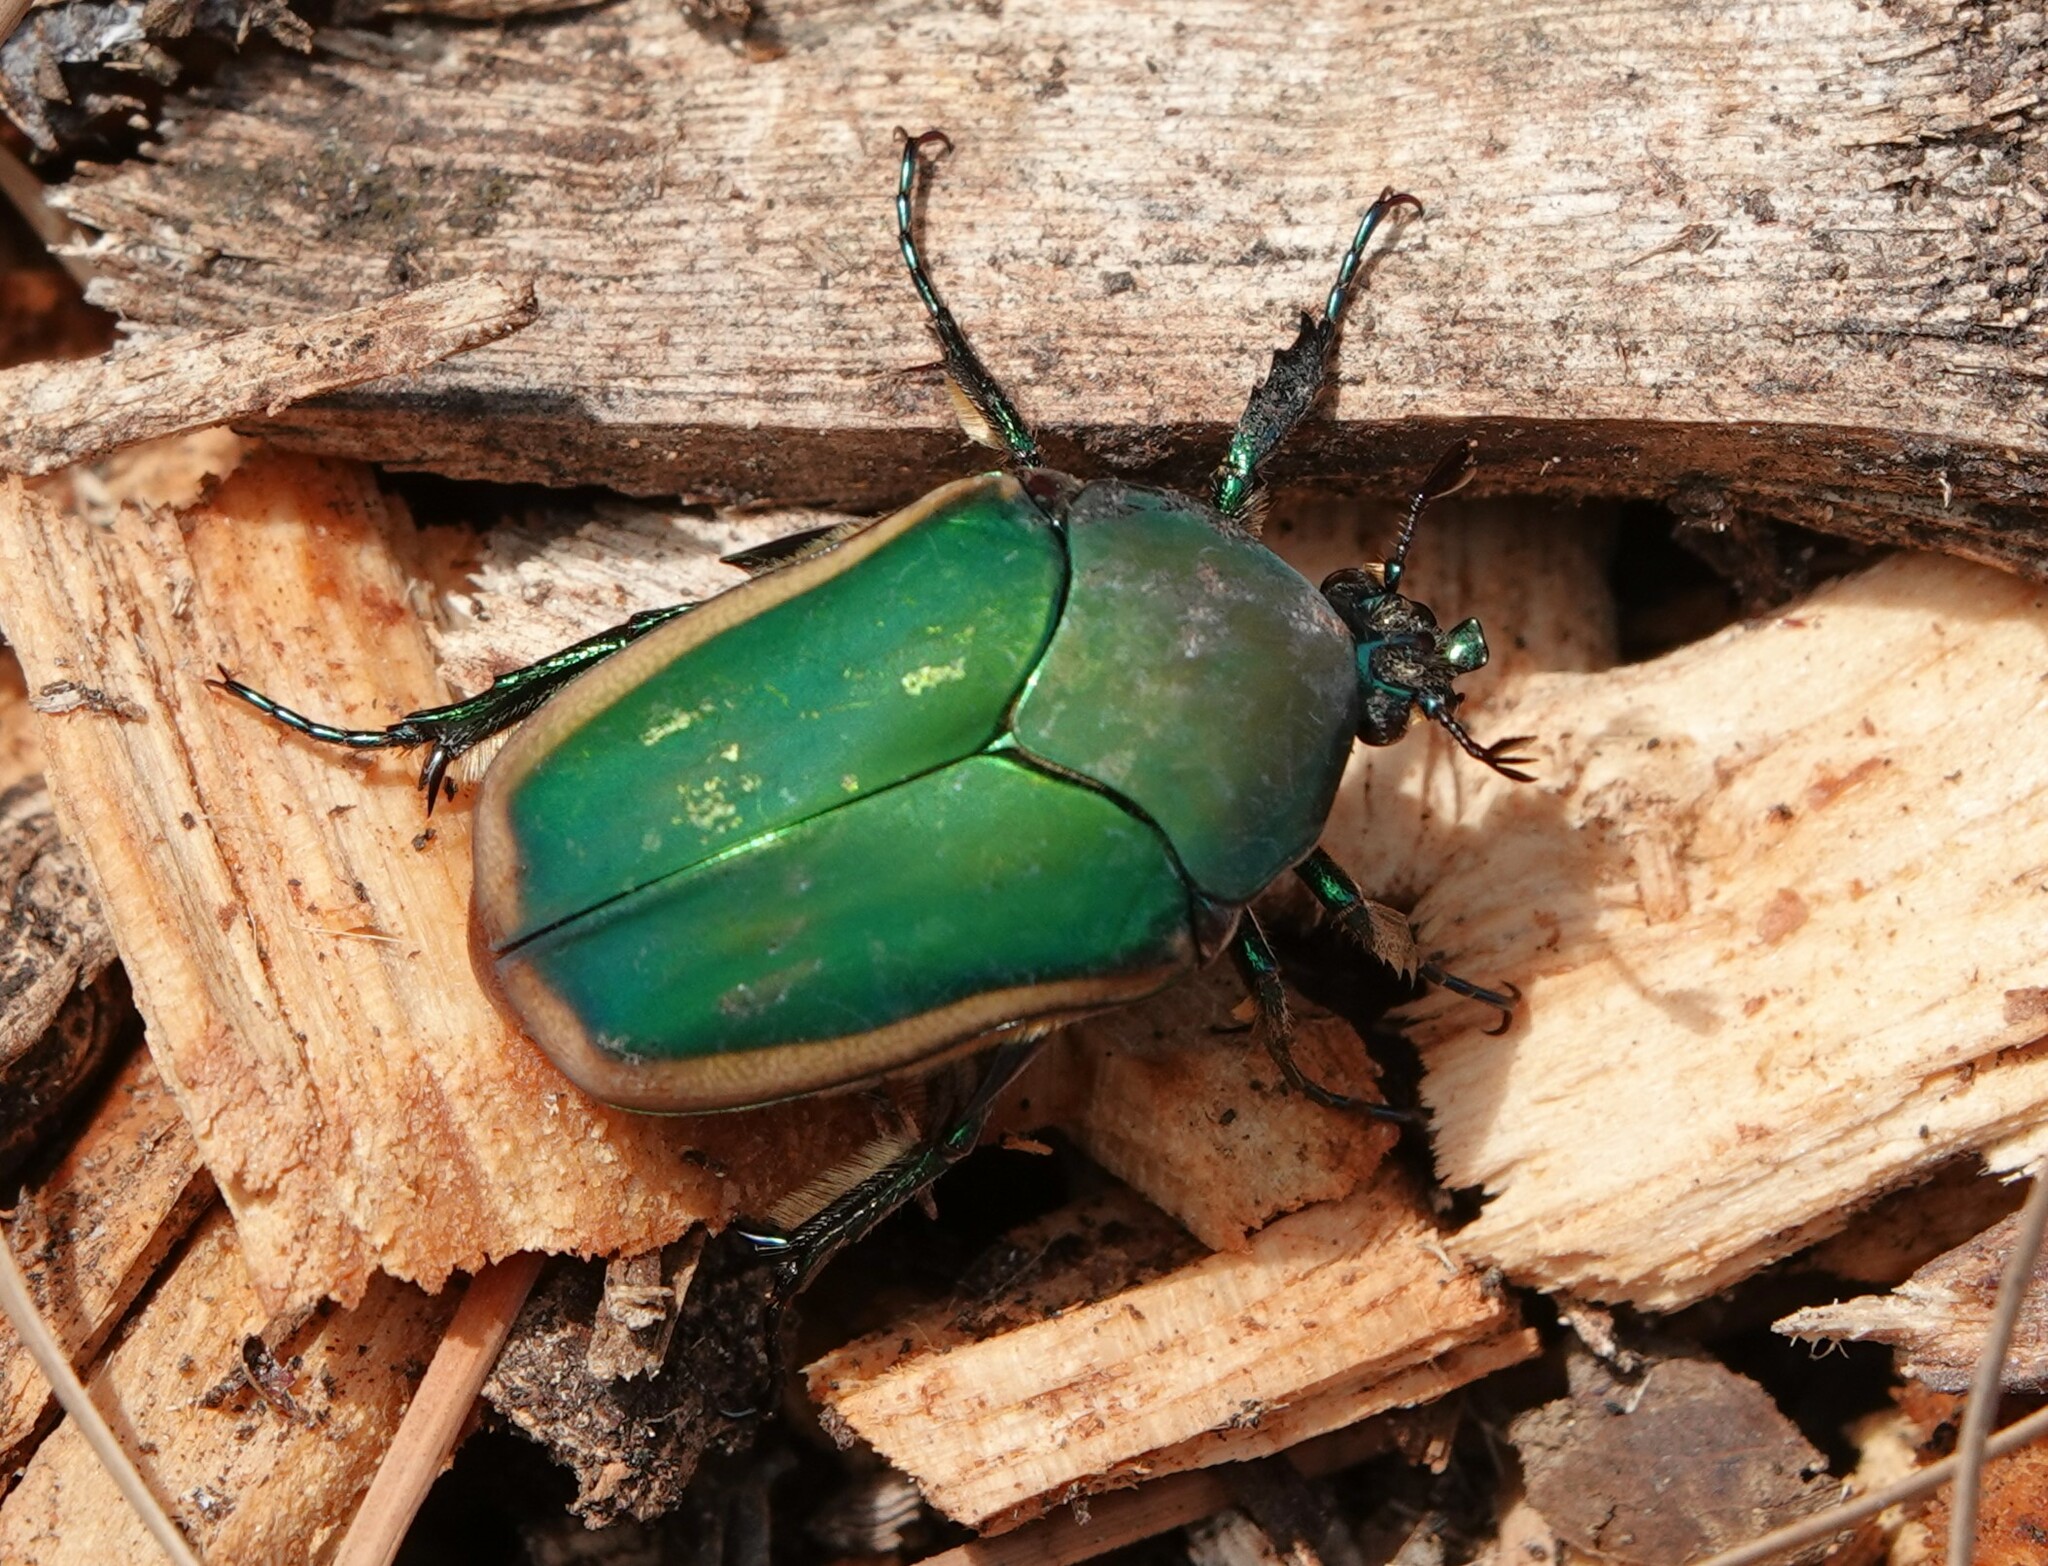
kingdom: Animalia
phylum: Arthropoda
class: Insecta
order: Coleoptera
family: Scarabaeidae
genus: Cotinis
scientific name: Cotinis mutabilis
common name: Figeater beetle
